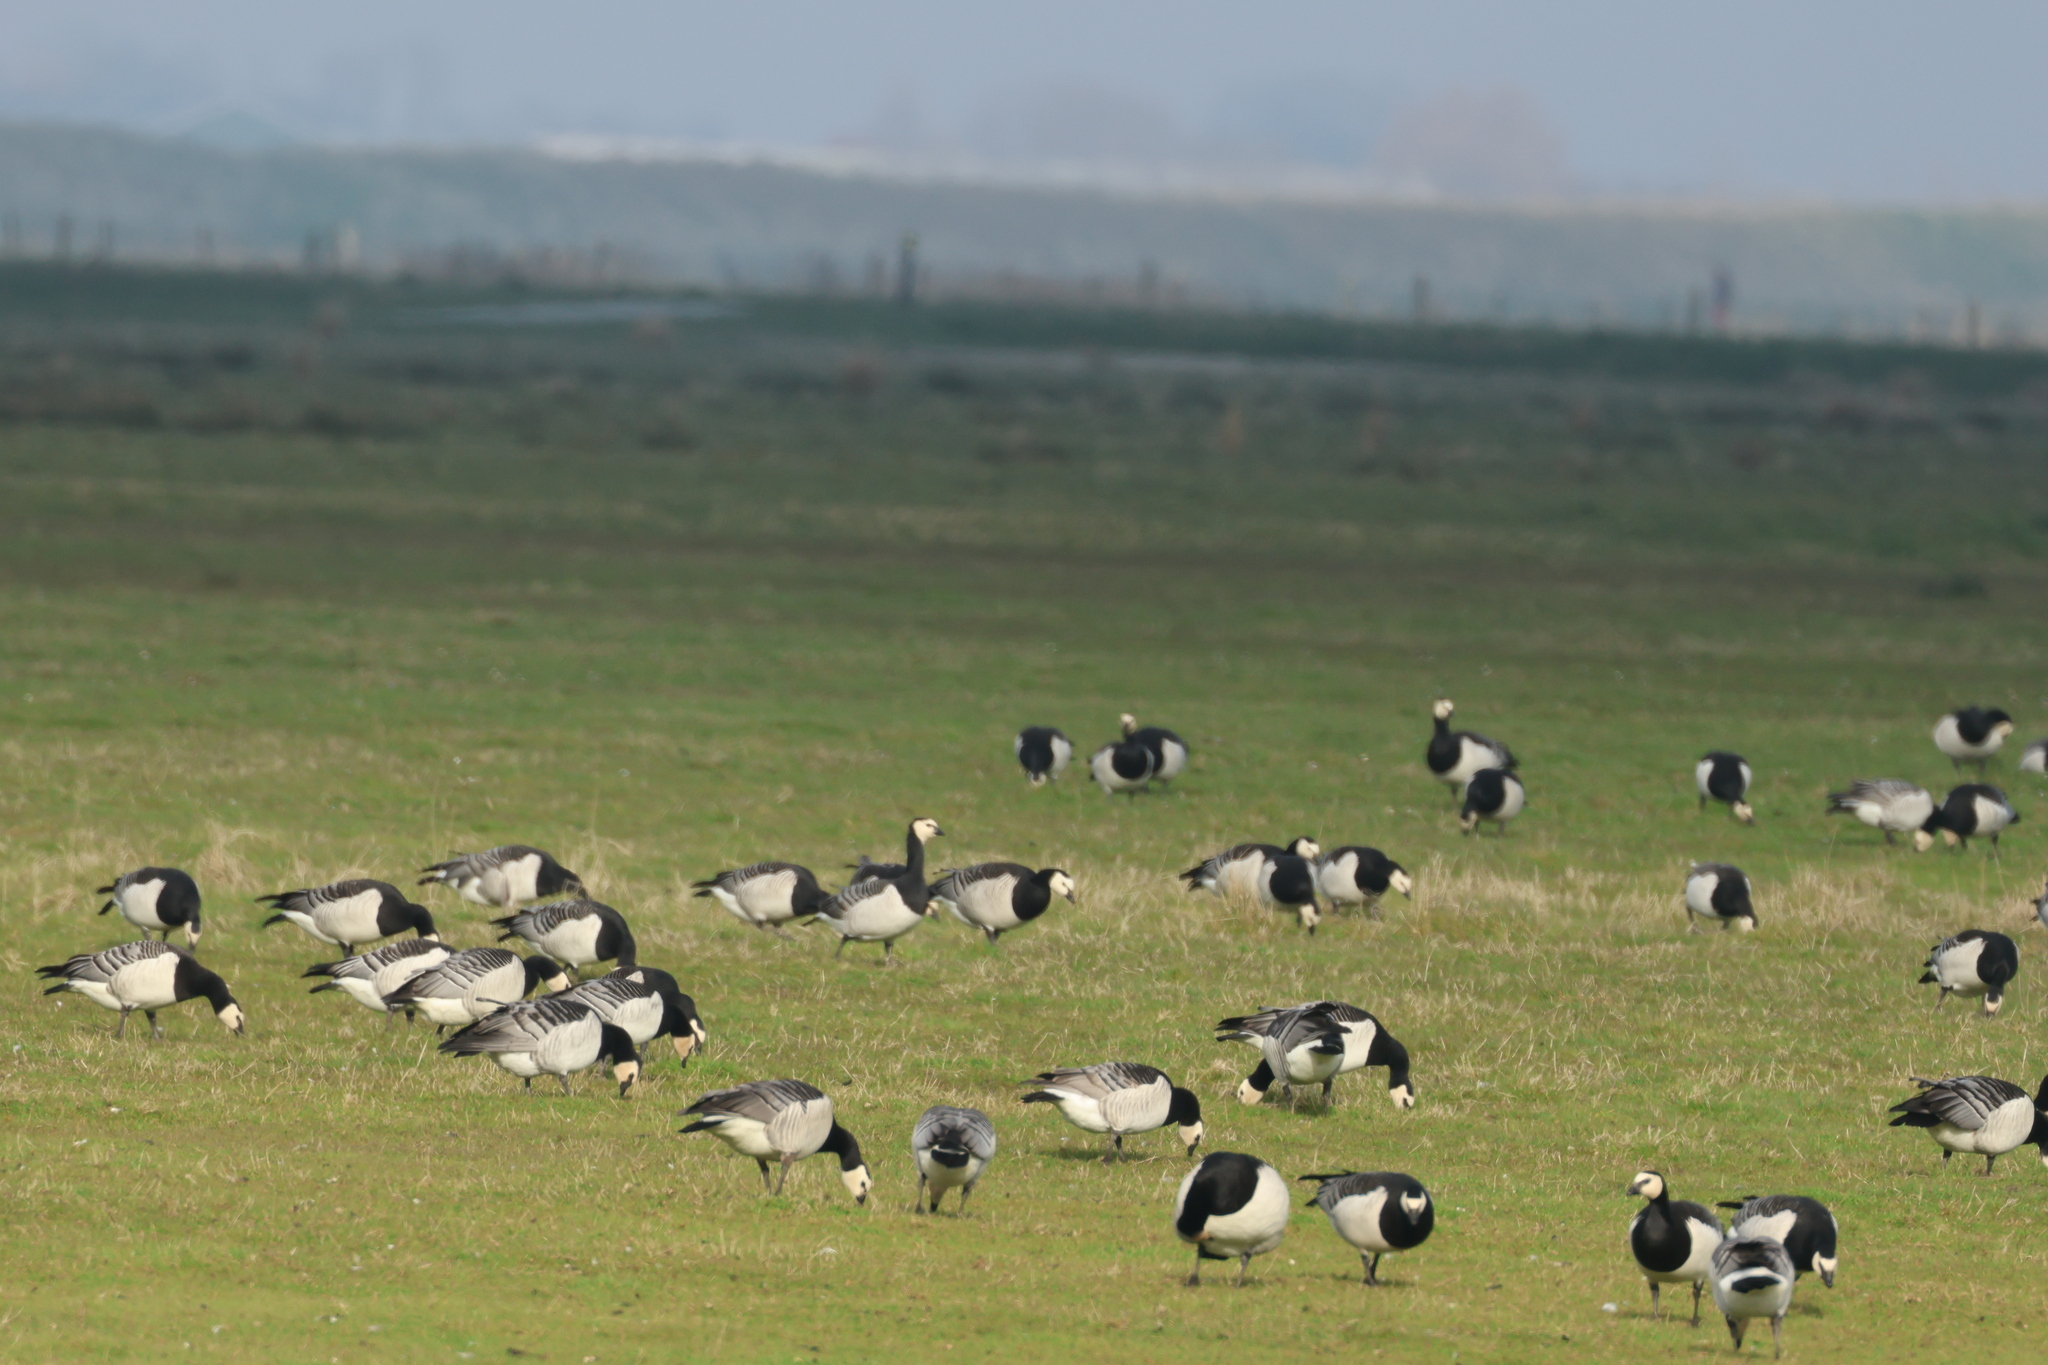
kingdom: Animalia
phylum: Chordata
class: Aves
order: Anseriformes
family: Anatidae
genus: Branta
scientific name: Branta leucopsis
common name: Barnacle goose
